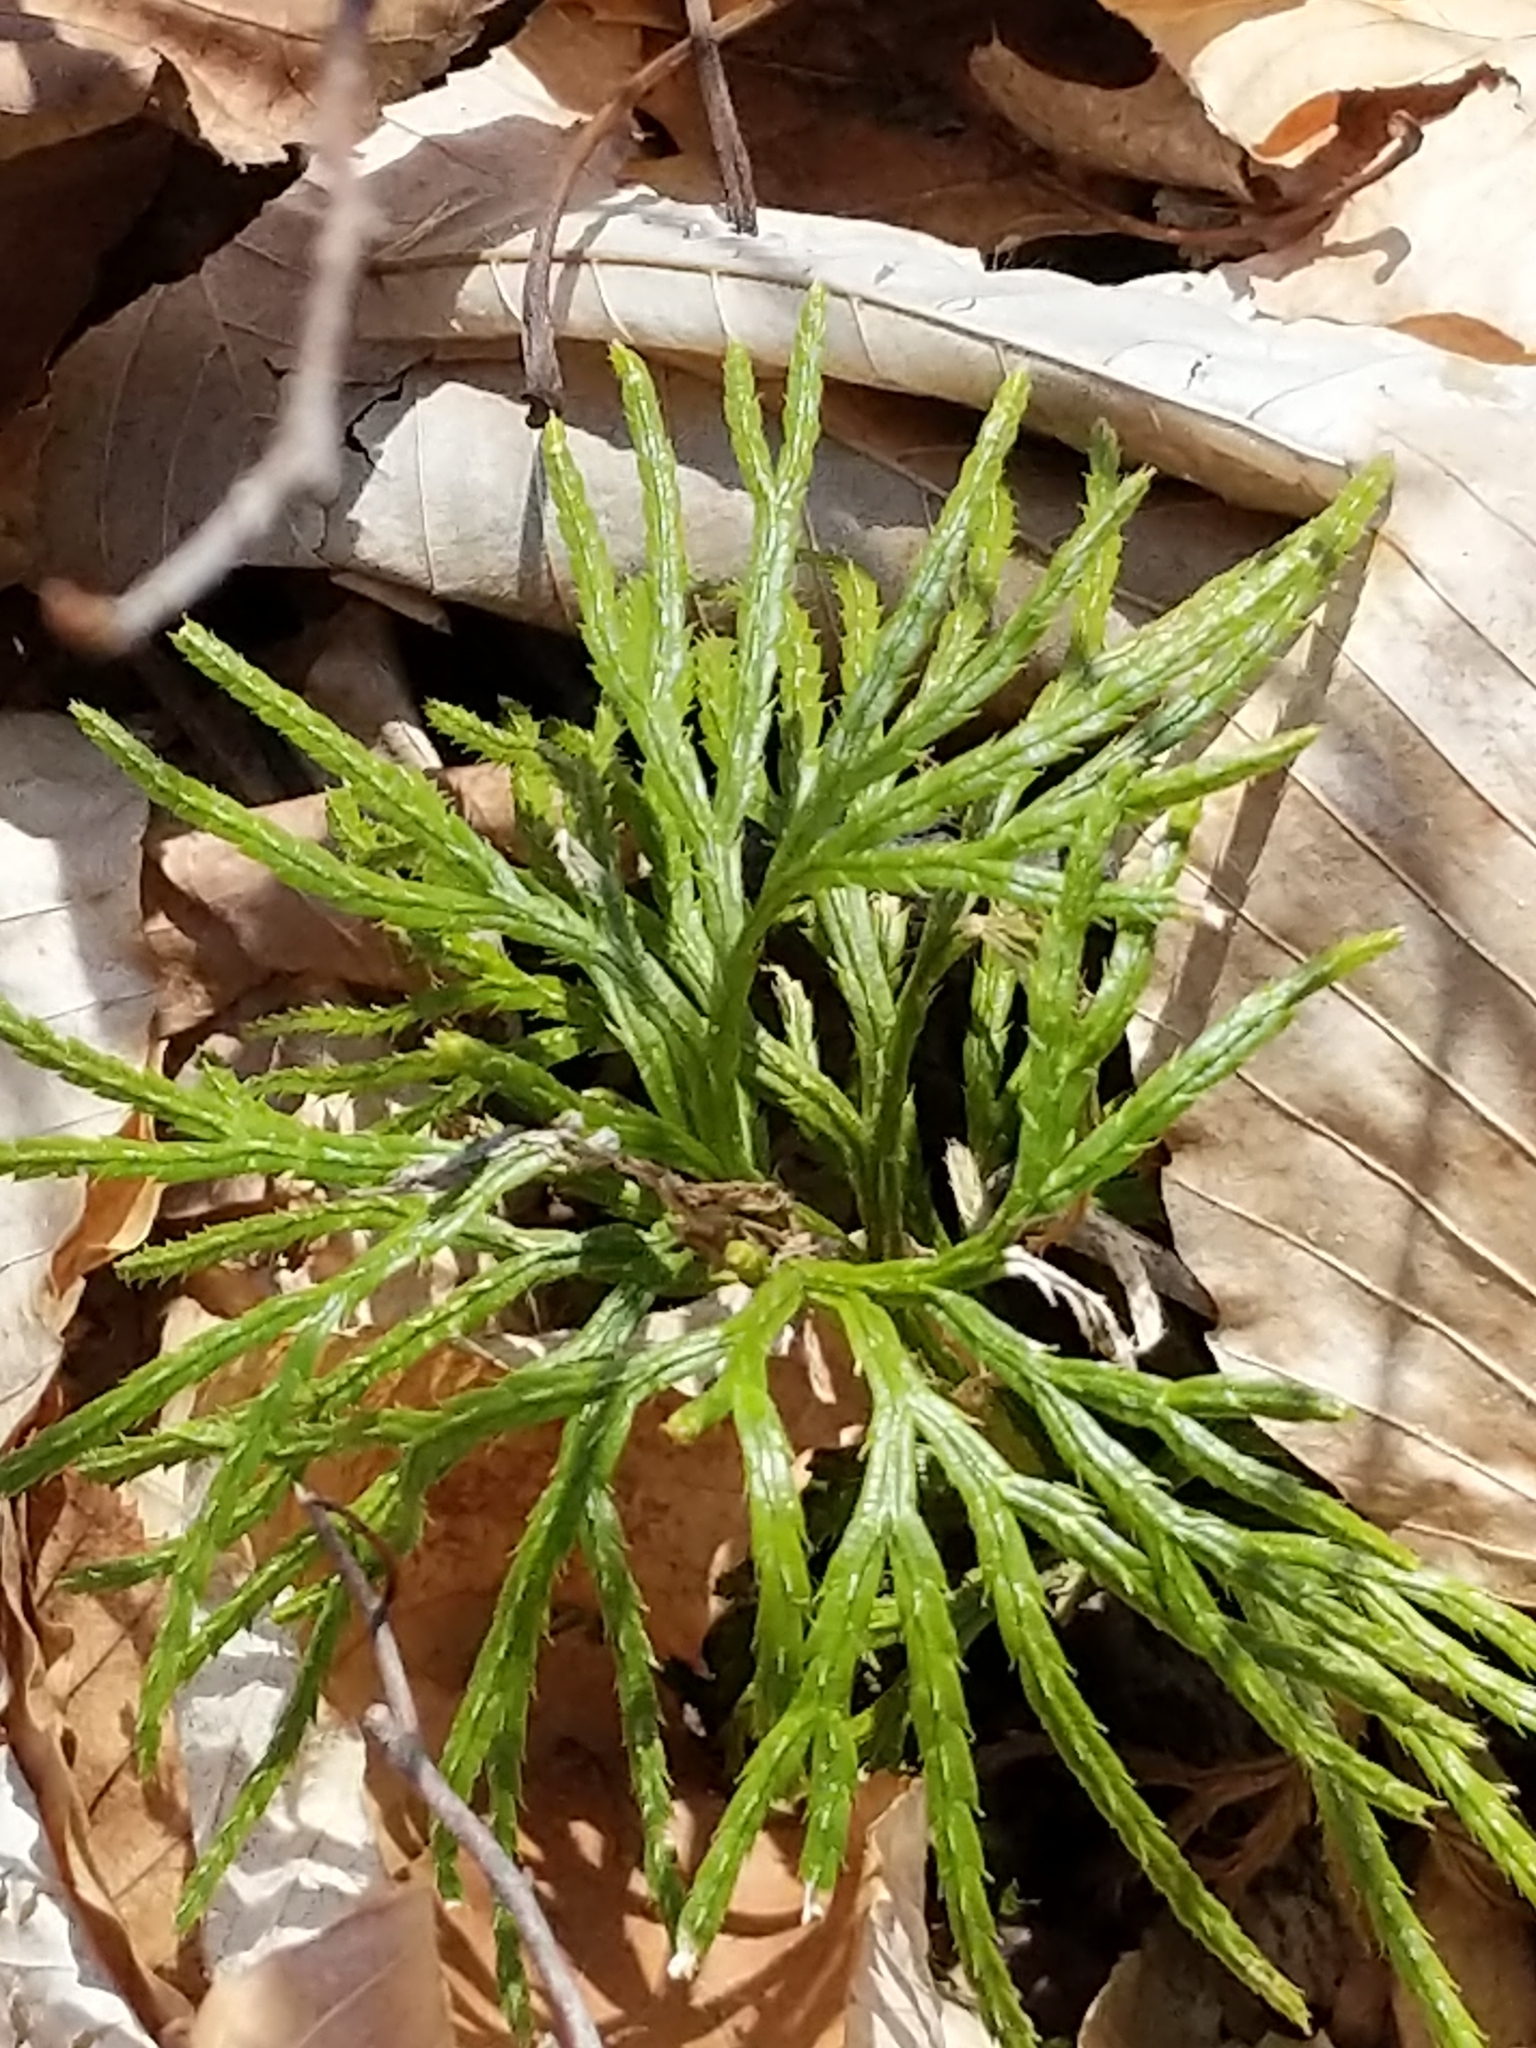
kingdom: Plantae
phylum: Tracheophyta
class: Lycopodiopsida
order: Lycopodiales
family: Lycopodiaceae
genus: Diphasiastrum
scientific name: Diphasiastrum digitatum
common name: Southern running-pine
